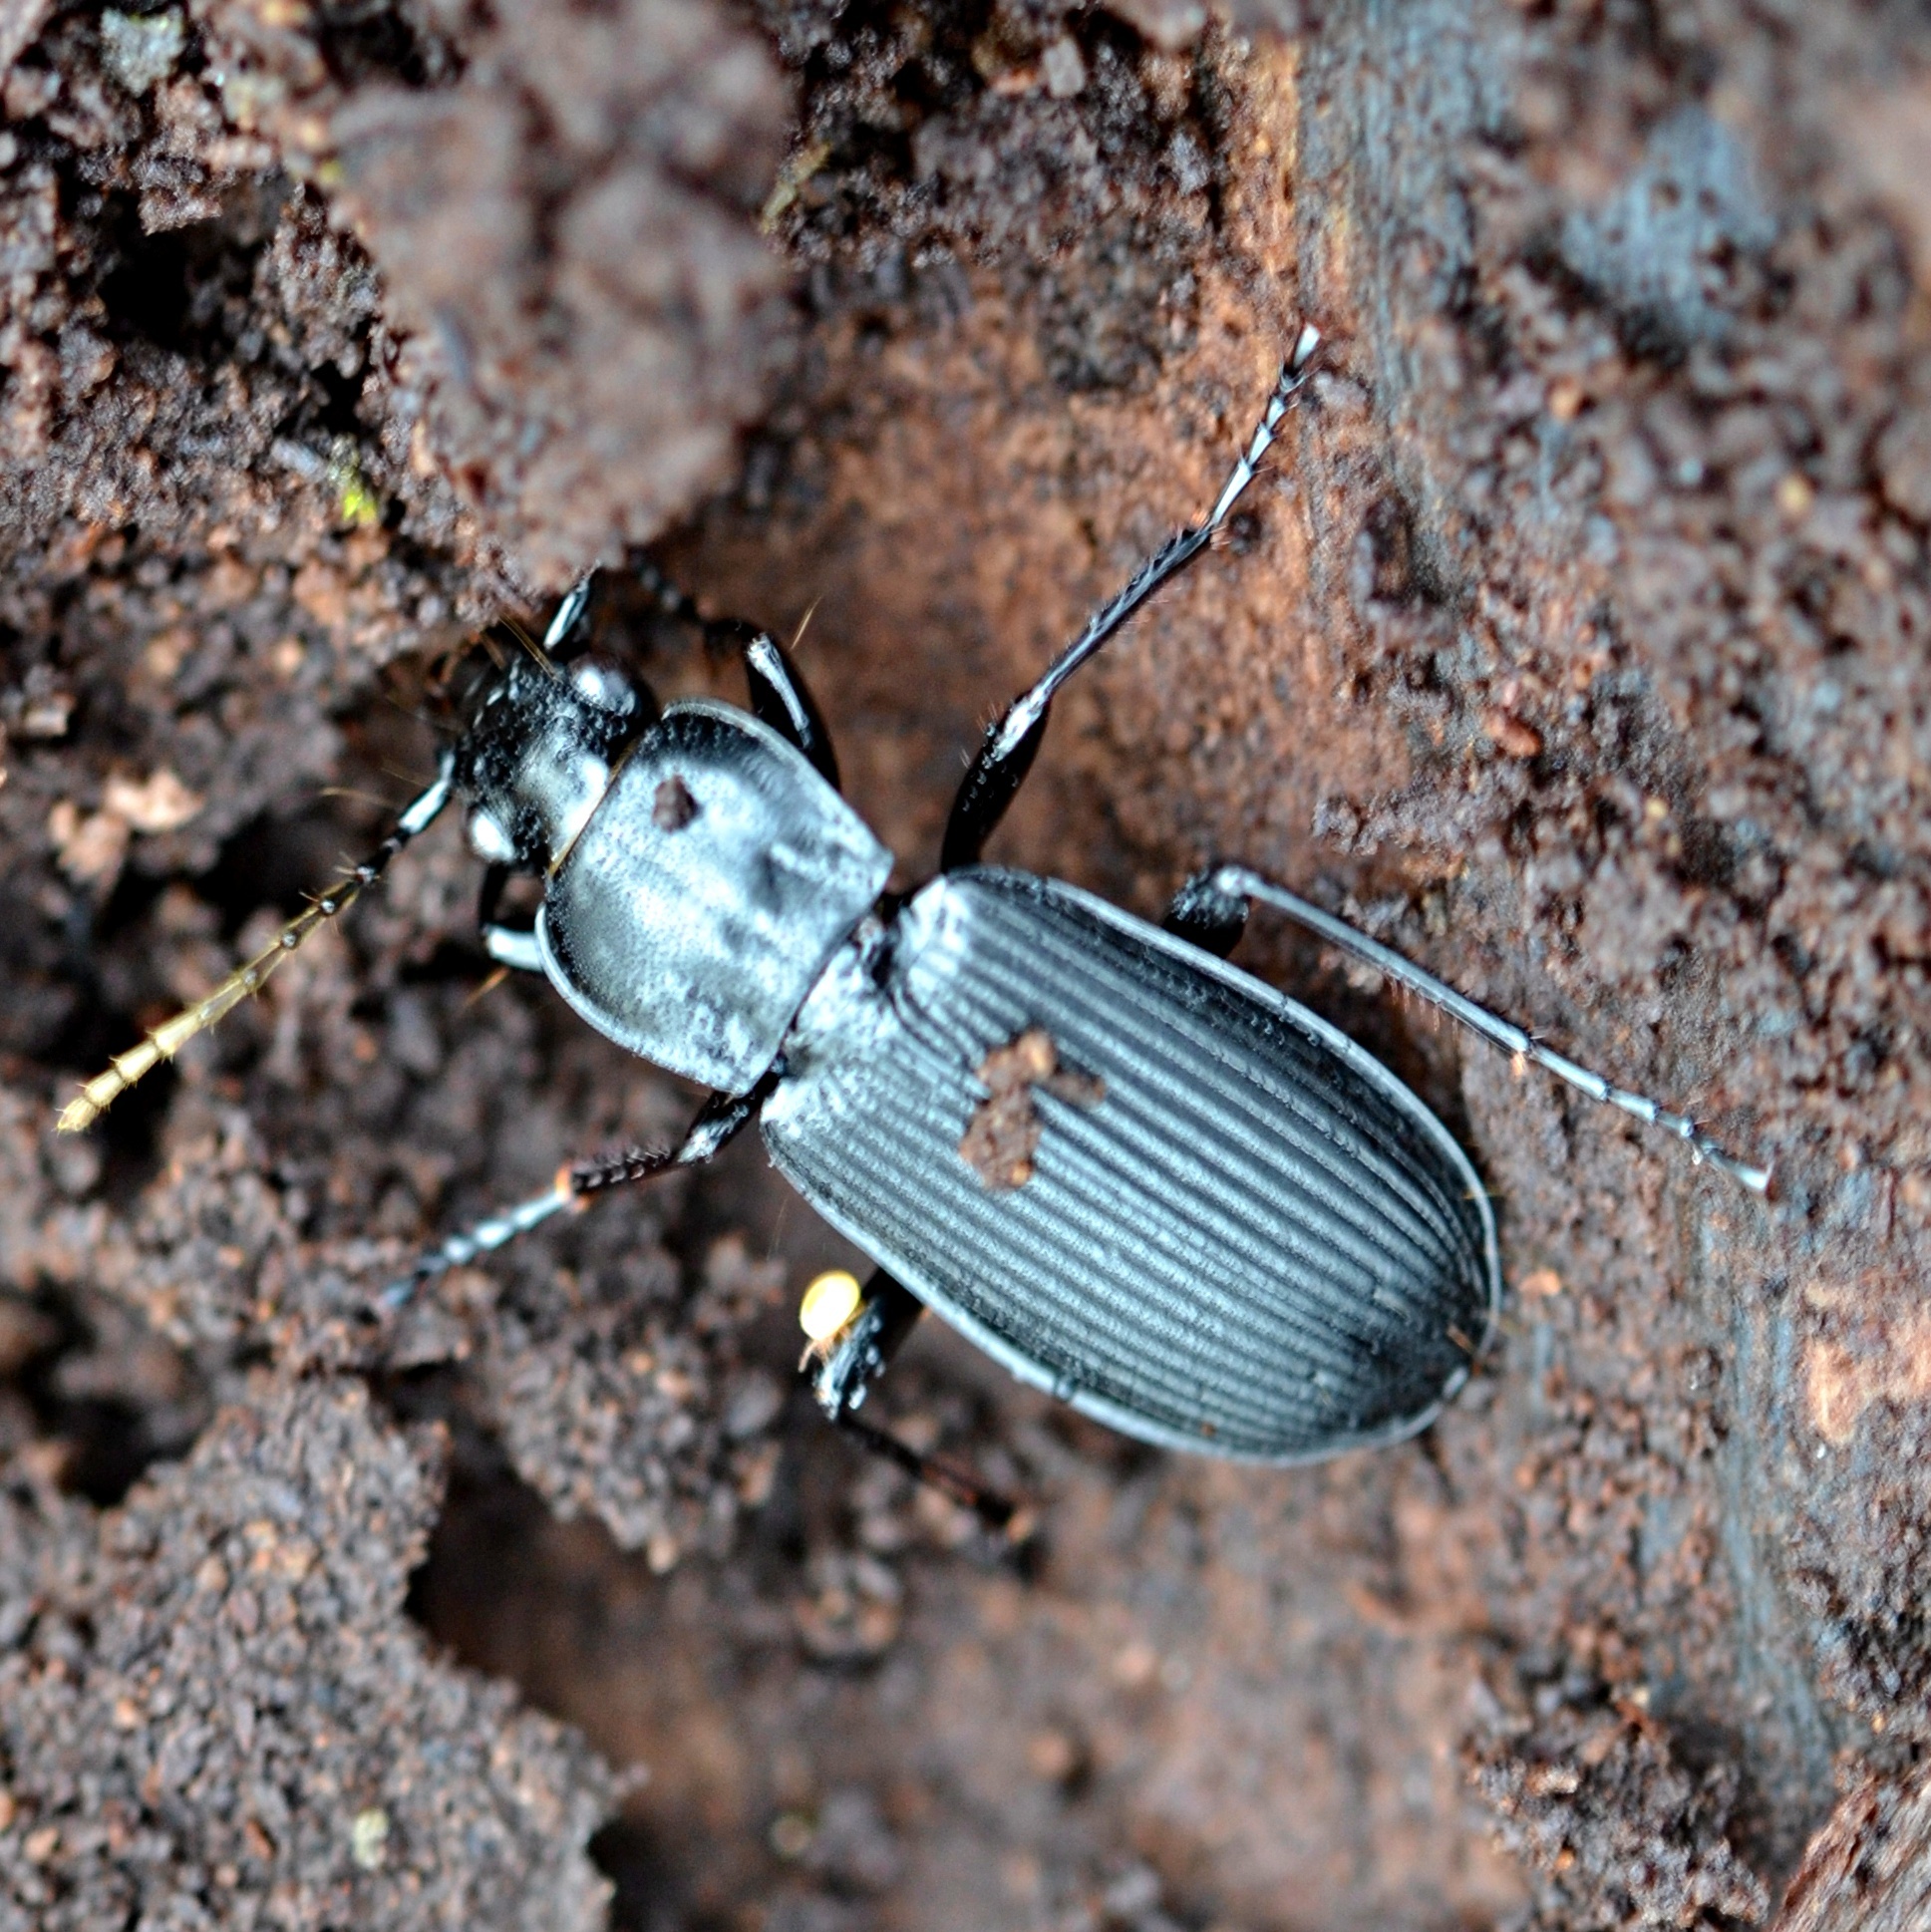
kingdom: Animalia
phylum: Arthropoda
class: Insecta
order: Coleoptera
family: Carabidae
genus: Pterostichus
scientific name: Pterostichus niger
